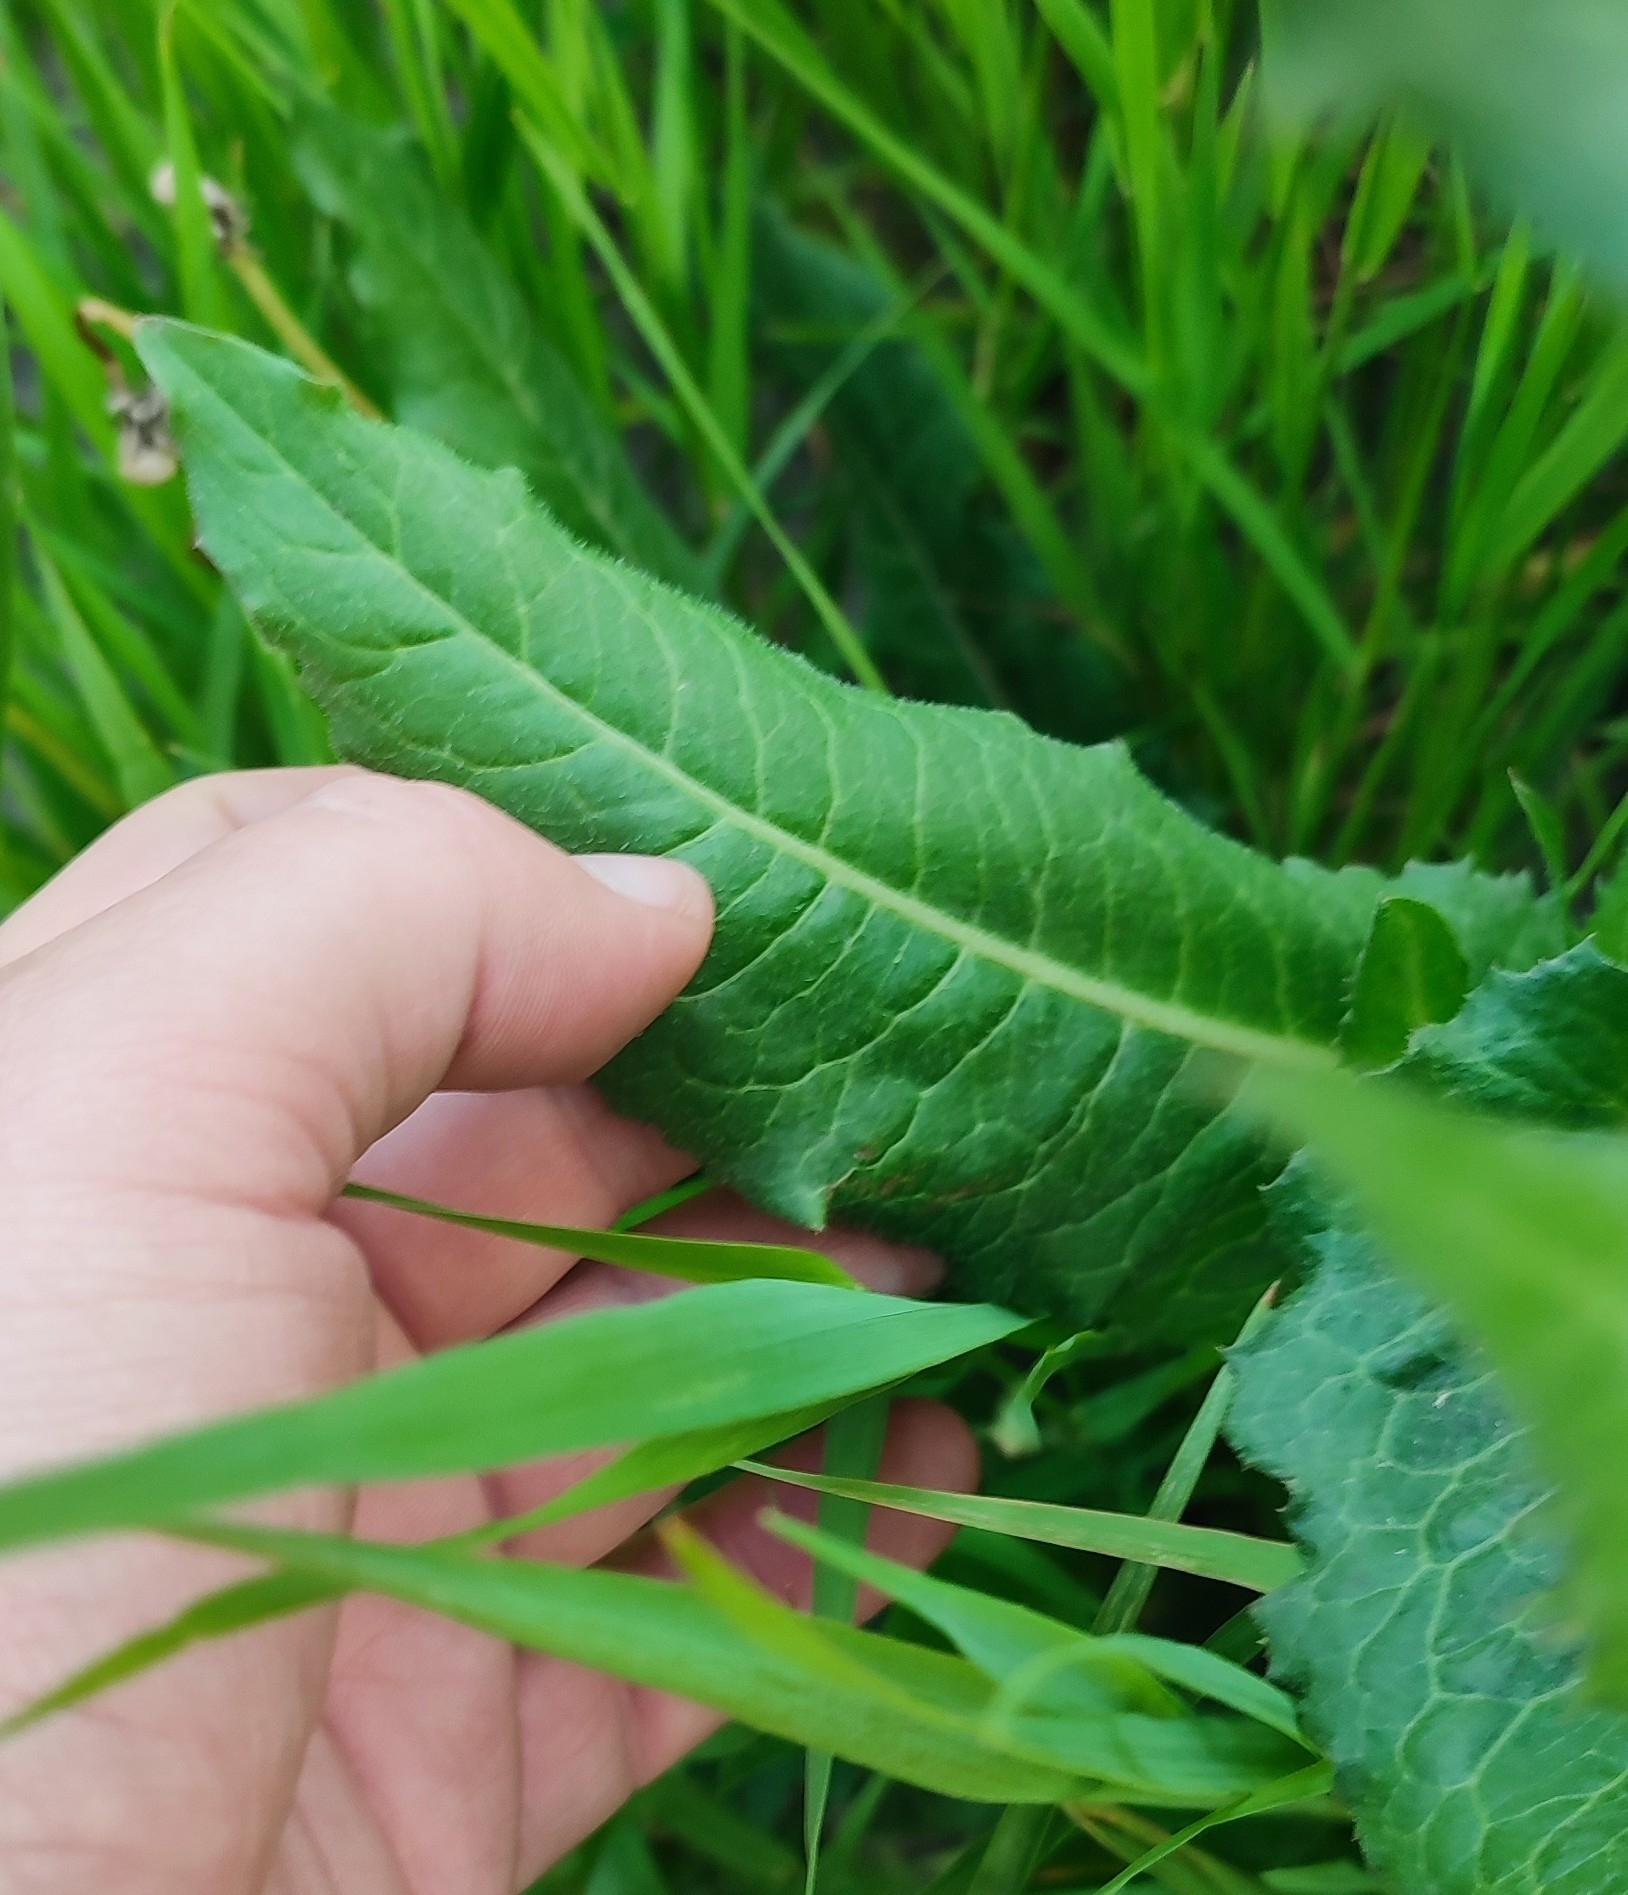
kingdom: Plantae
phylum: Tracheophyta
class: Magnoliopsida
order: Asterales
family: Asteraceae
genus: Cichorium
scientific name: Cichorium intybus
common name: Chicory
